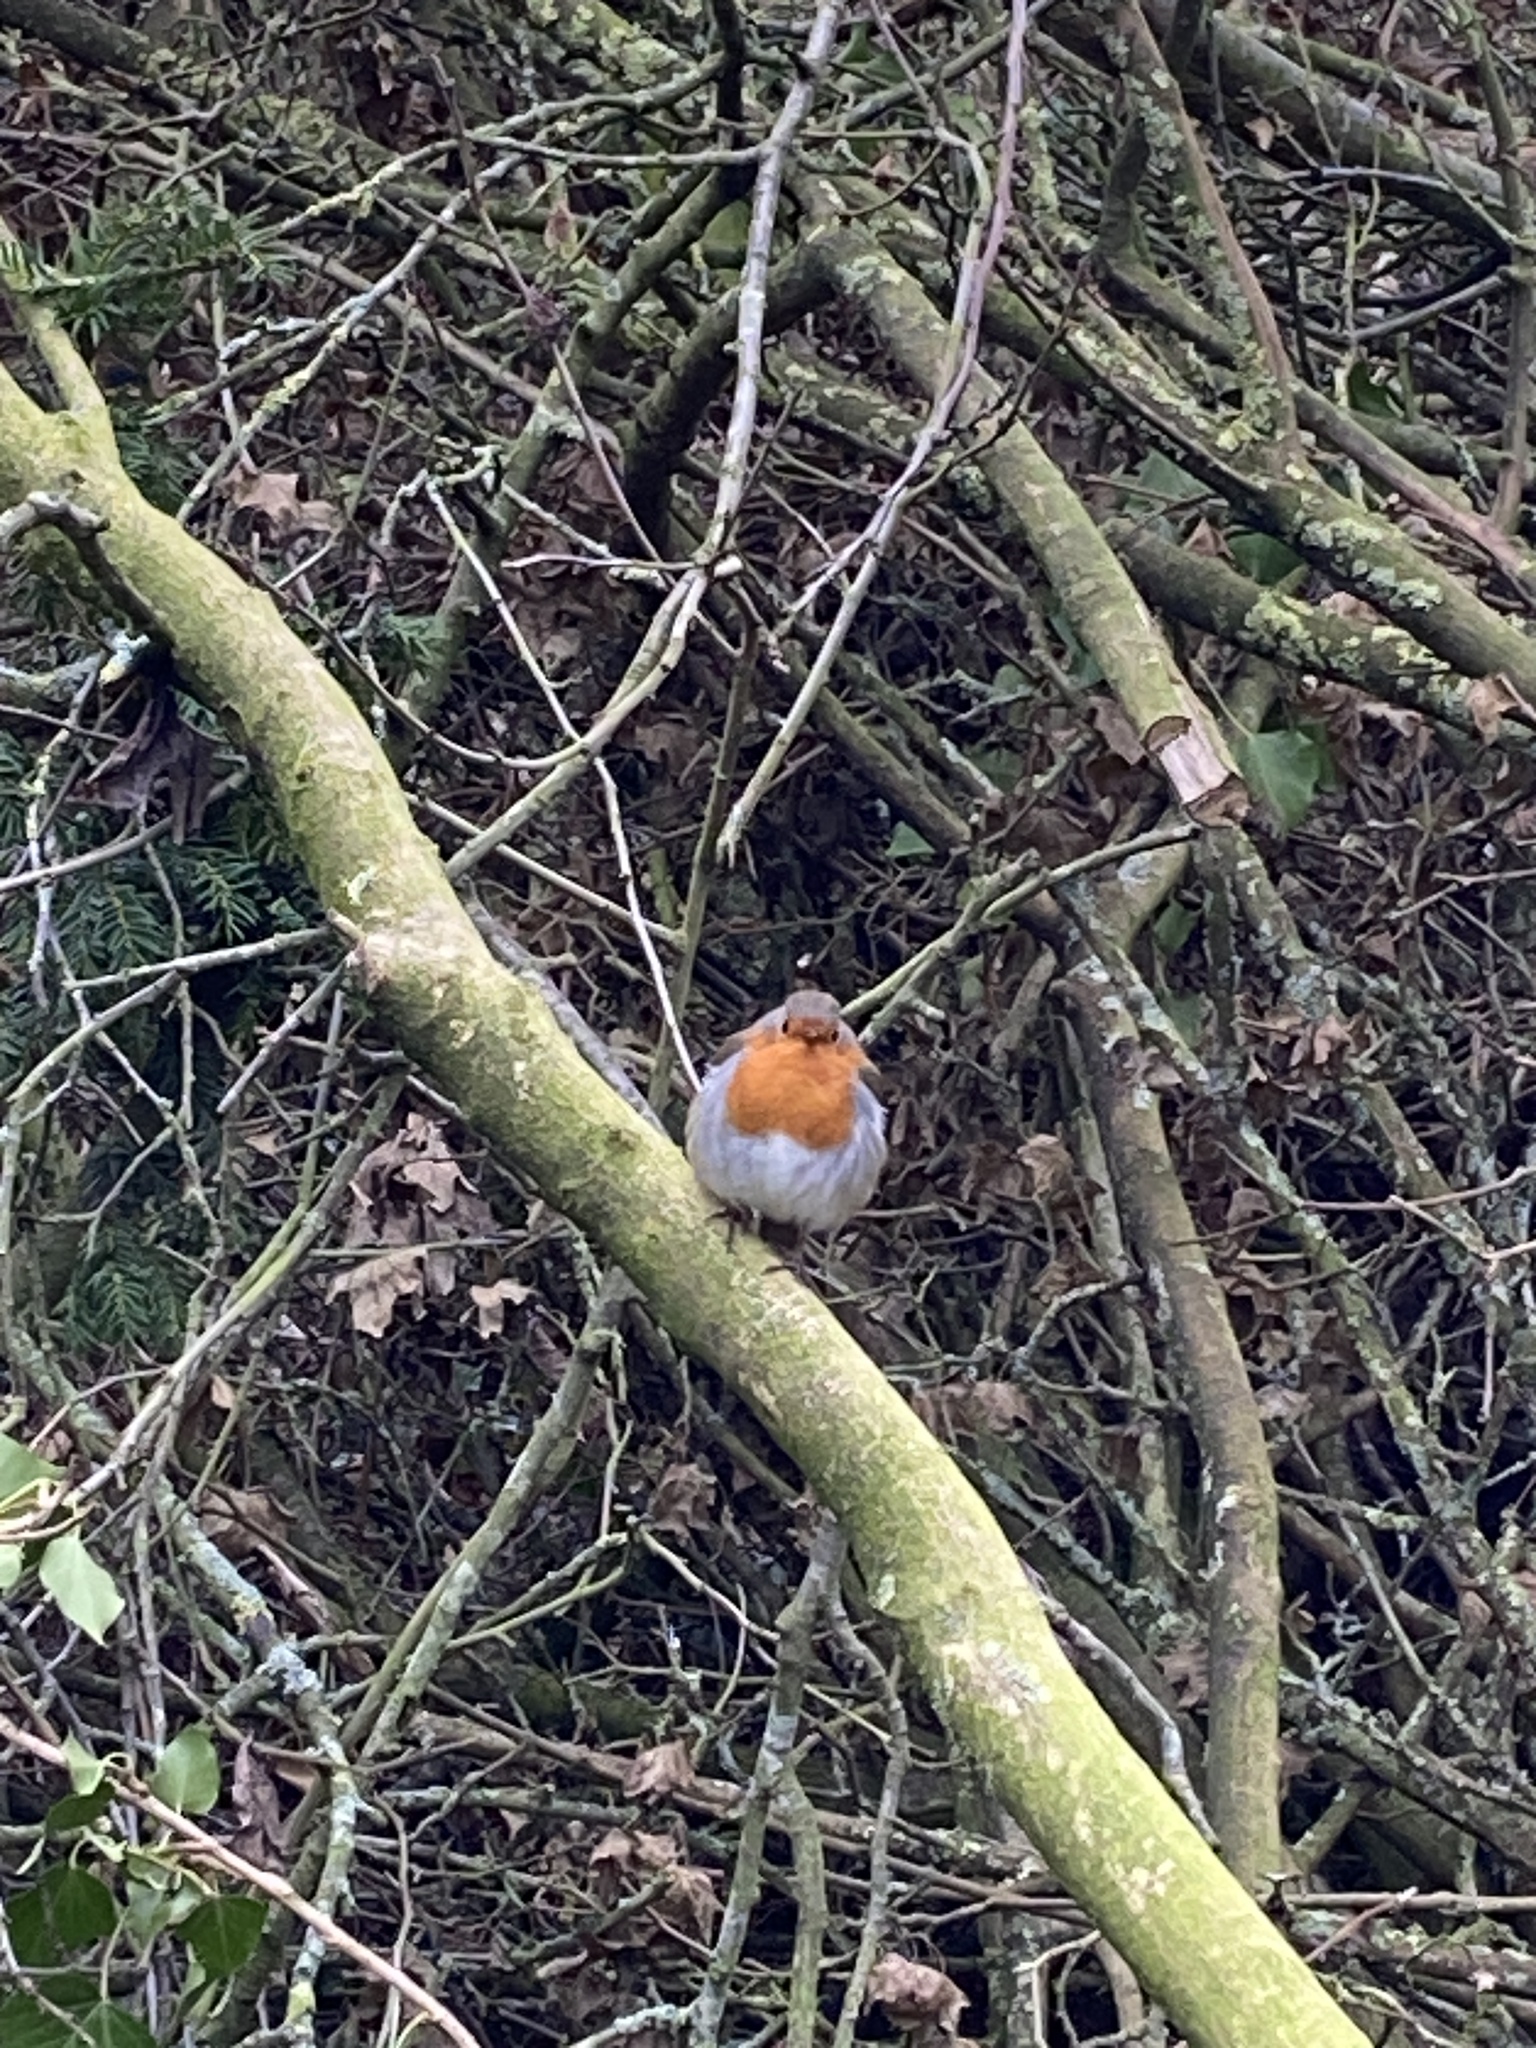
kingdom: Animalia
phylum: Chordata
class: Aves
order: Passeriformes
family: Muscicapidae
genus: Erithacus
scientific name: Erithacus rubecula
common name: European robin
